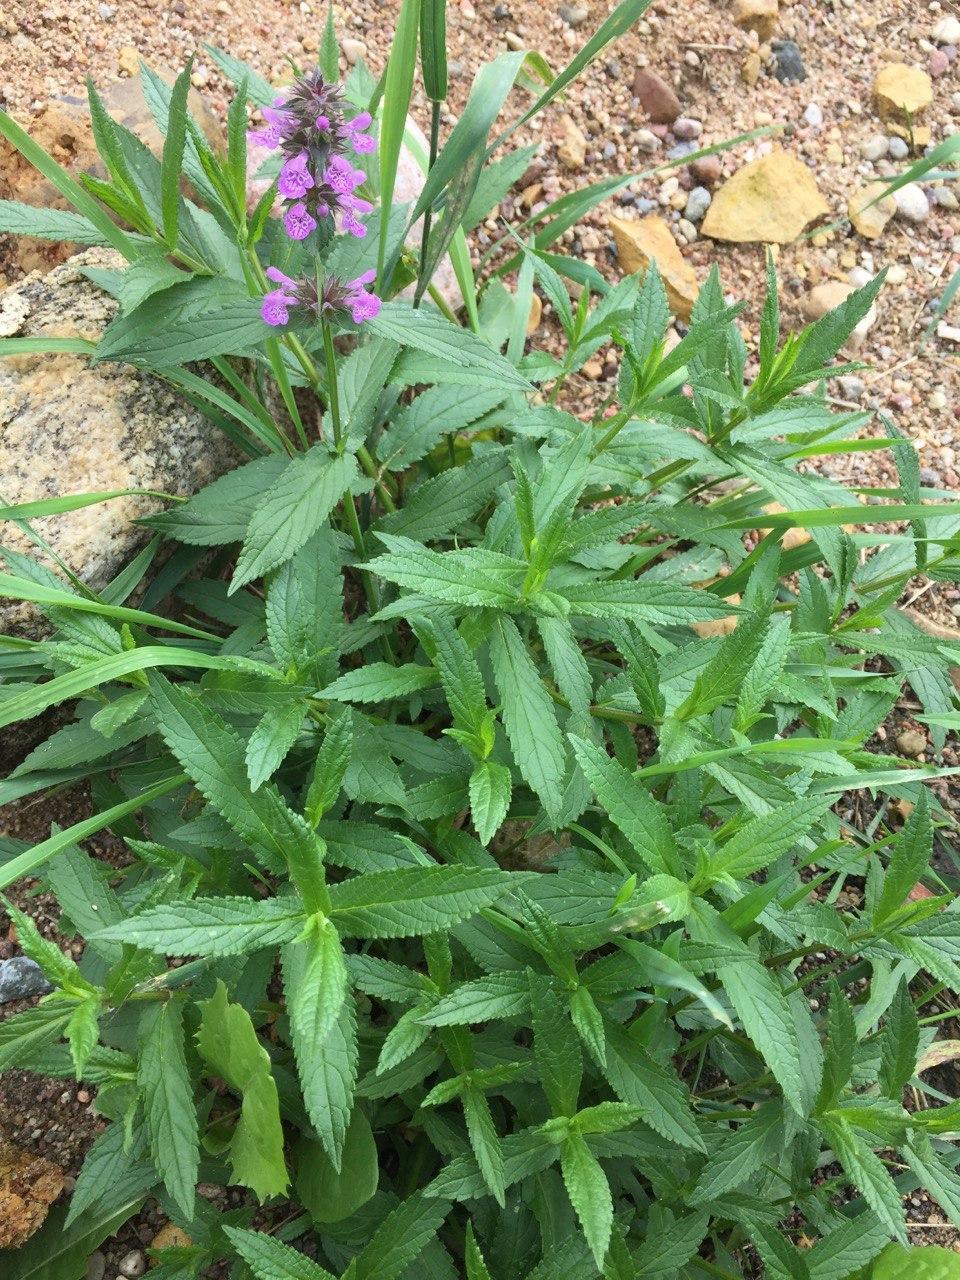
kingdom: Plantae
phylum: Tracheophyta
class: Magnoliopsida
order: Lamiales
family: Lamiaceae
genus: Stachys
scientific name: Stachys palustris
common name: Marsh woundwort
